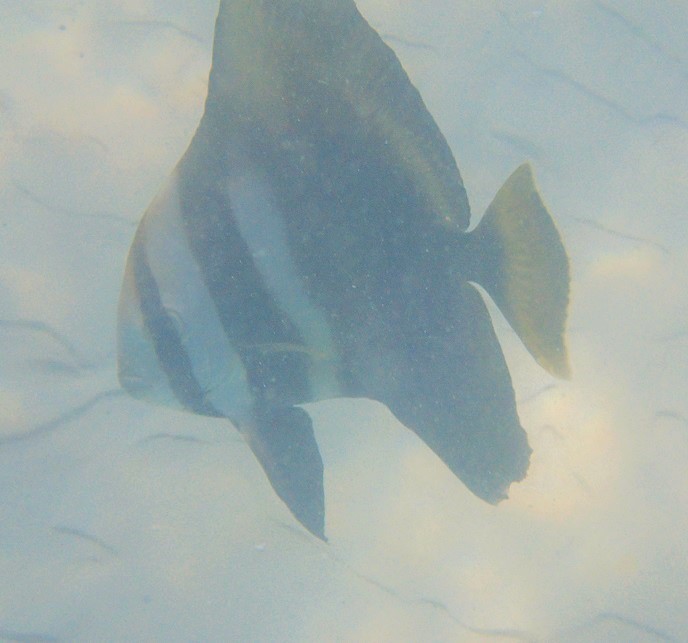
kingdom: Animalia
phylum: Chordata
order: Perciformes
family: Ephippidae
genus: Platax
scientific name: Platax batavianus
